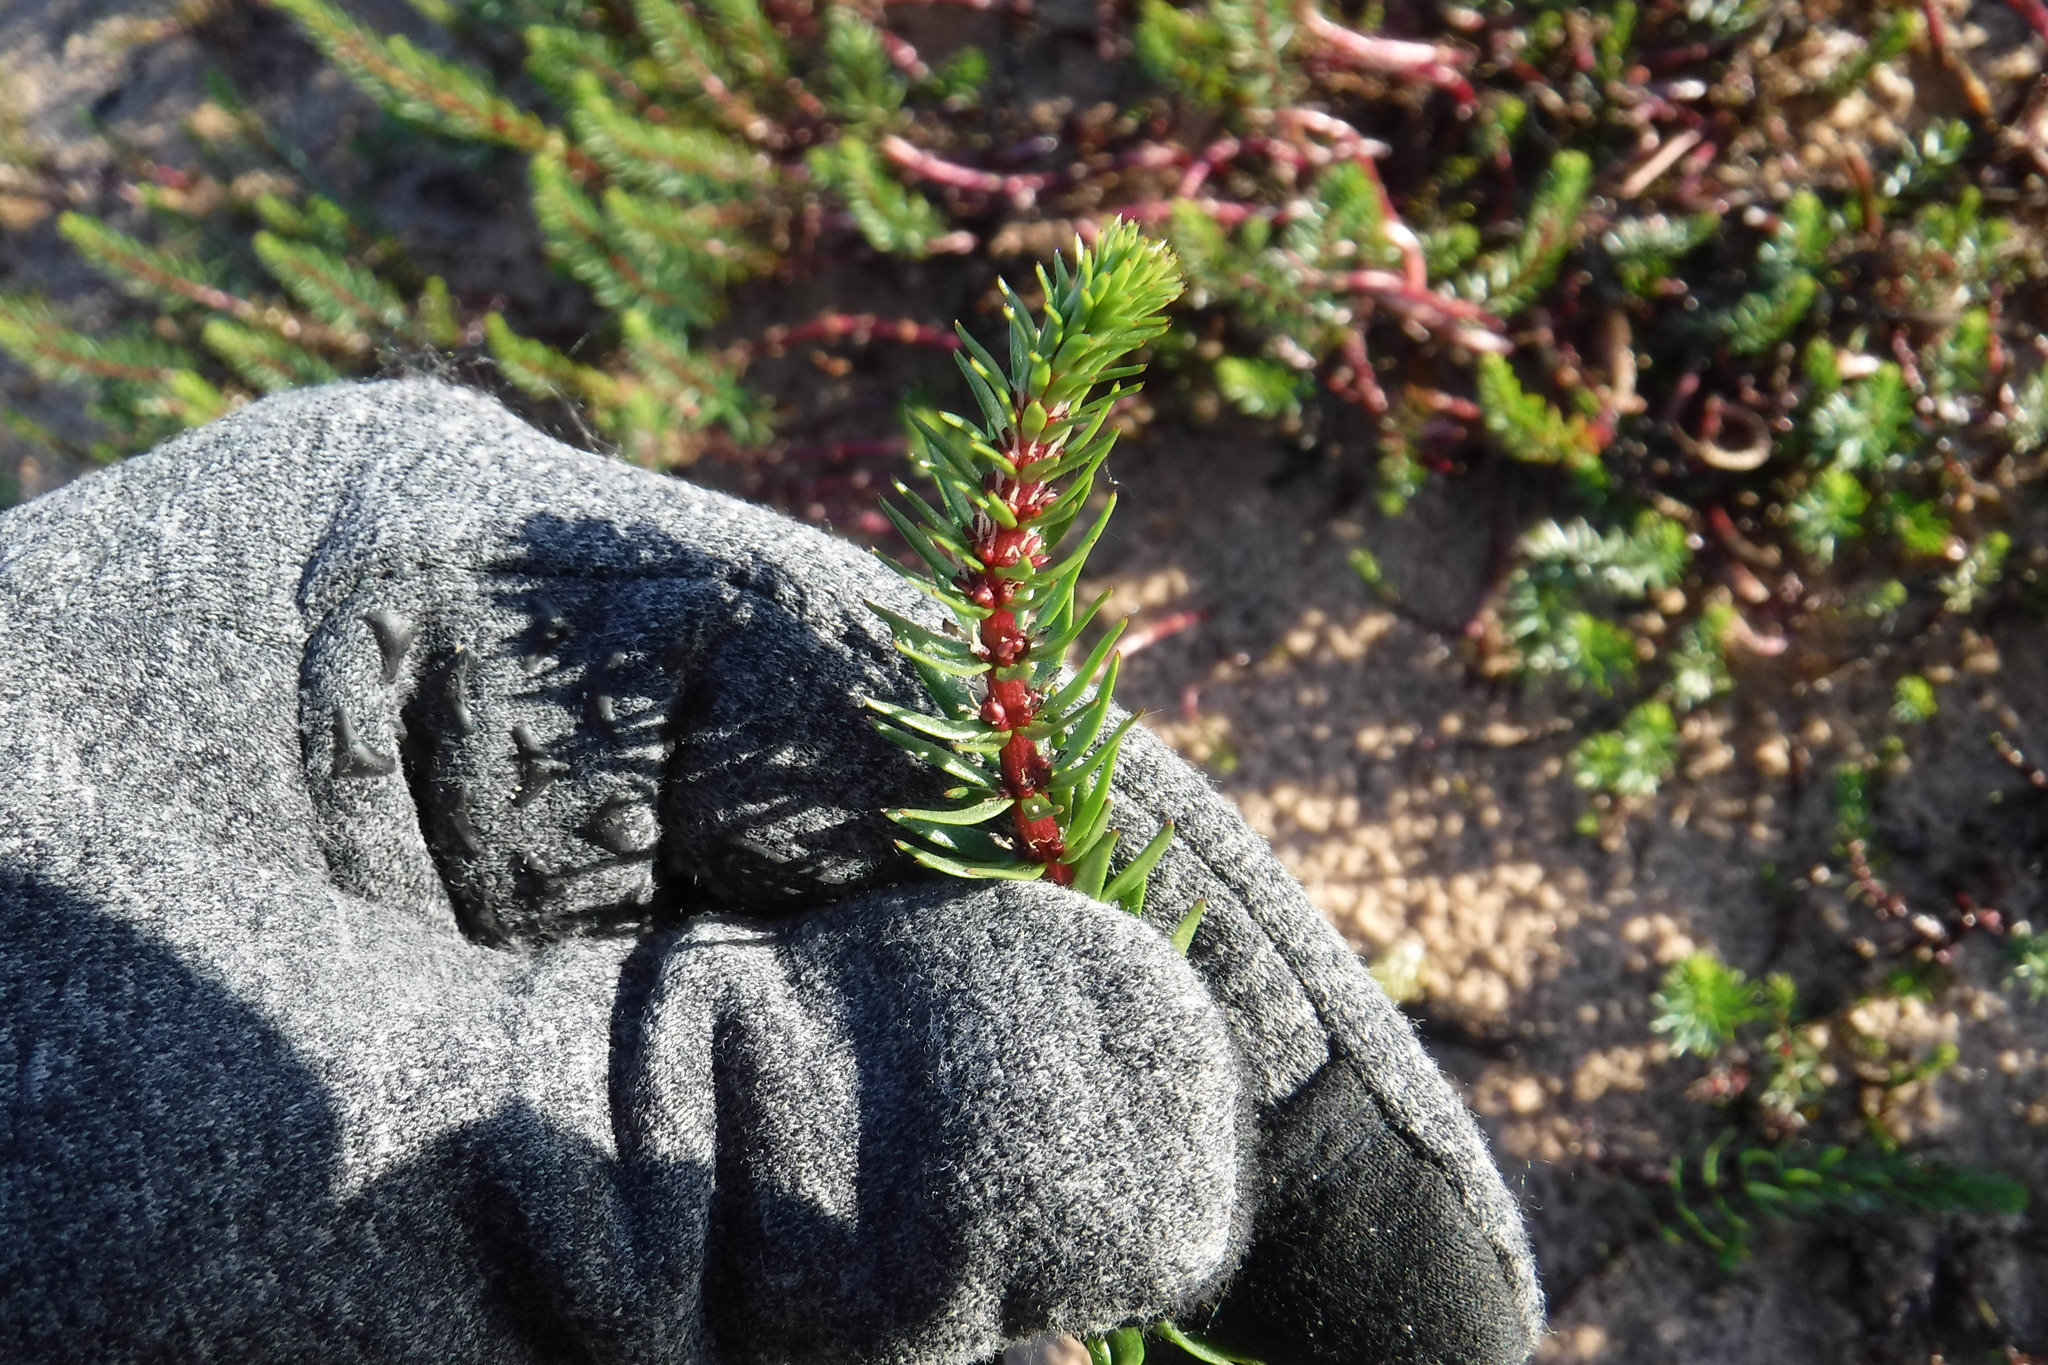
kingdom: Plantae
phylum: Tracheophyta
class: Magnoliopsida
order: Lamiales
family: Plantaginaceae
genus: Hippuris
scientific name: Hippuris lanceolata
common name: Lance-leaved mare's-tail
